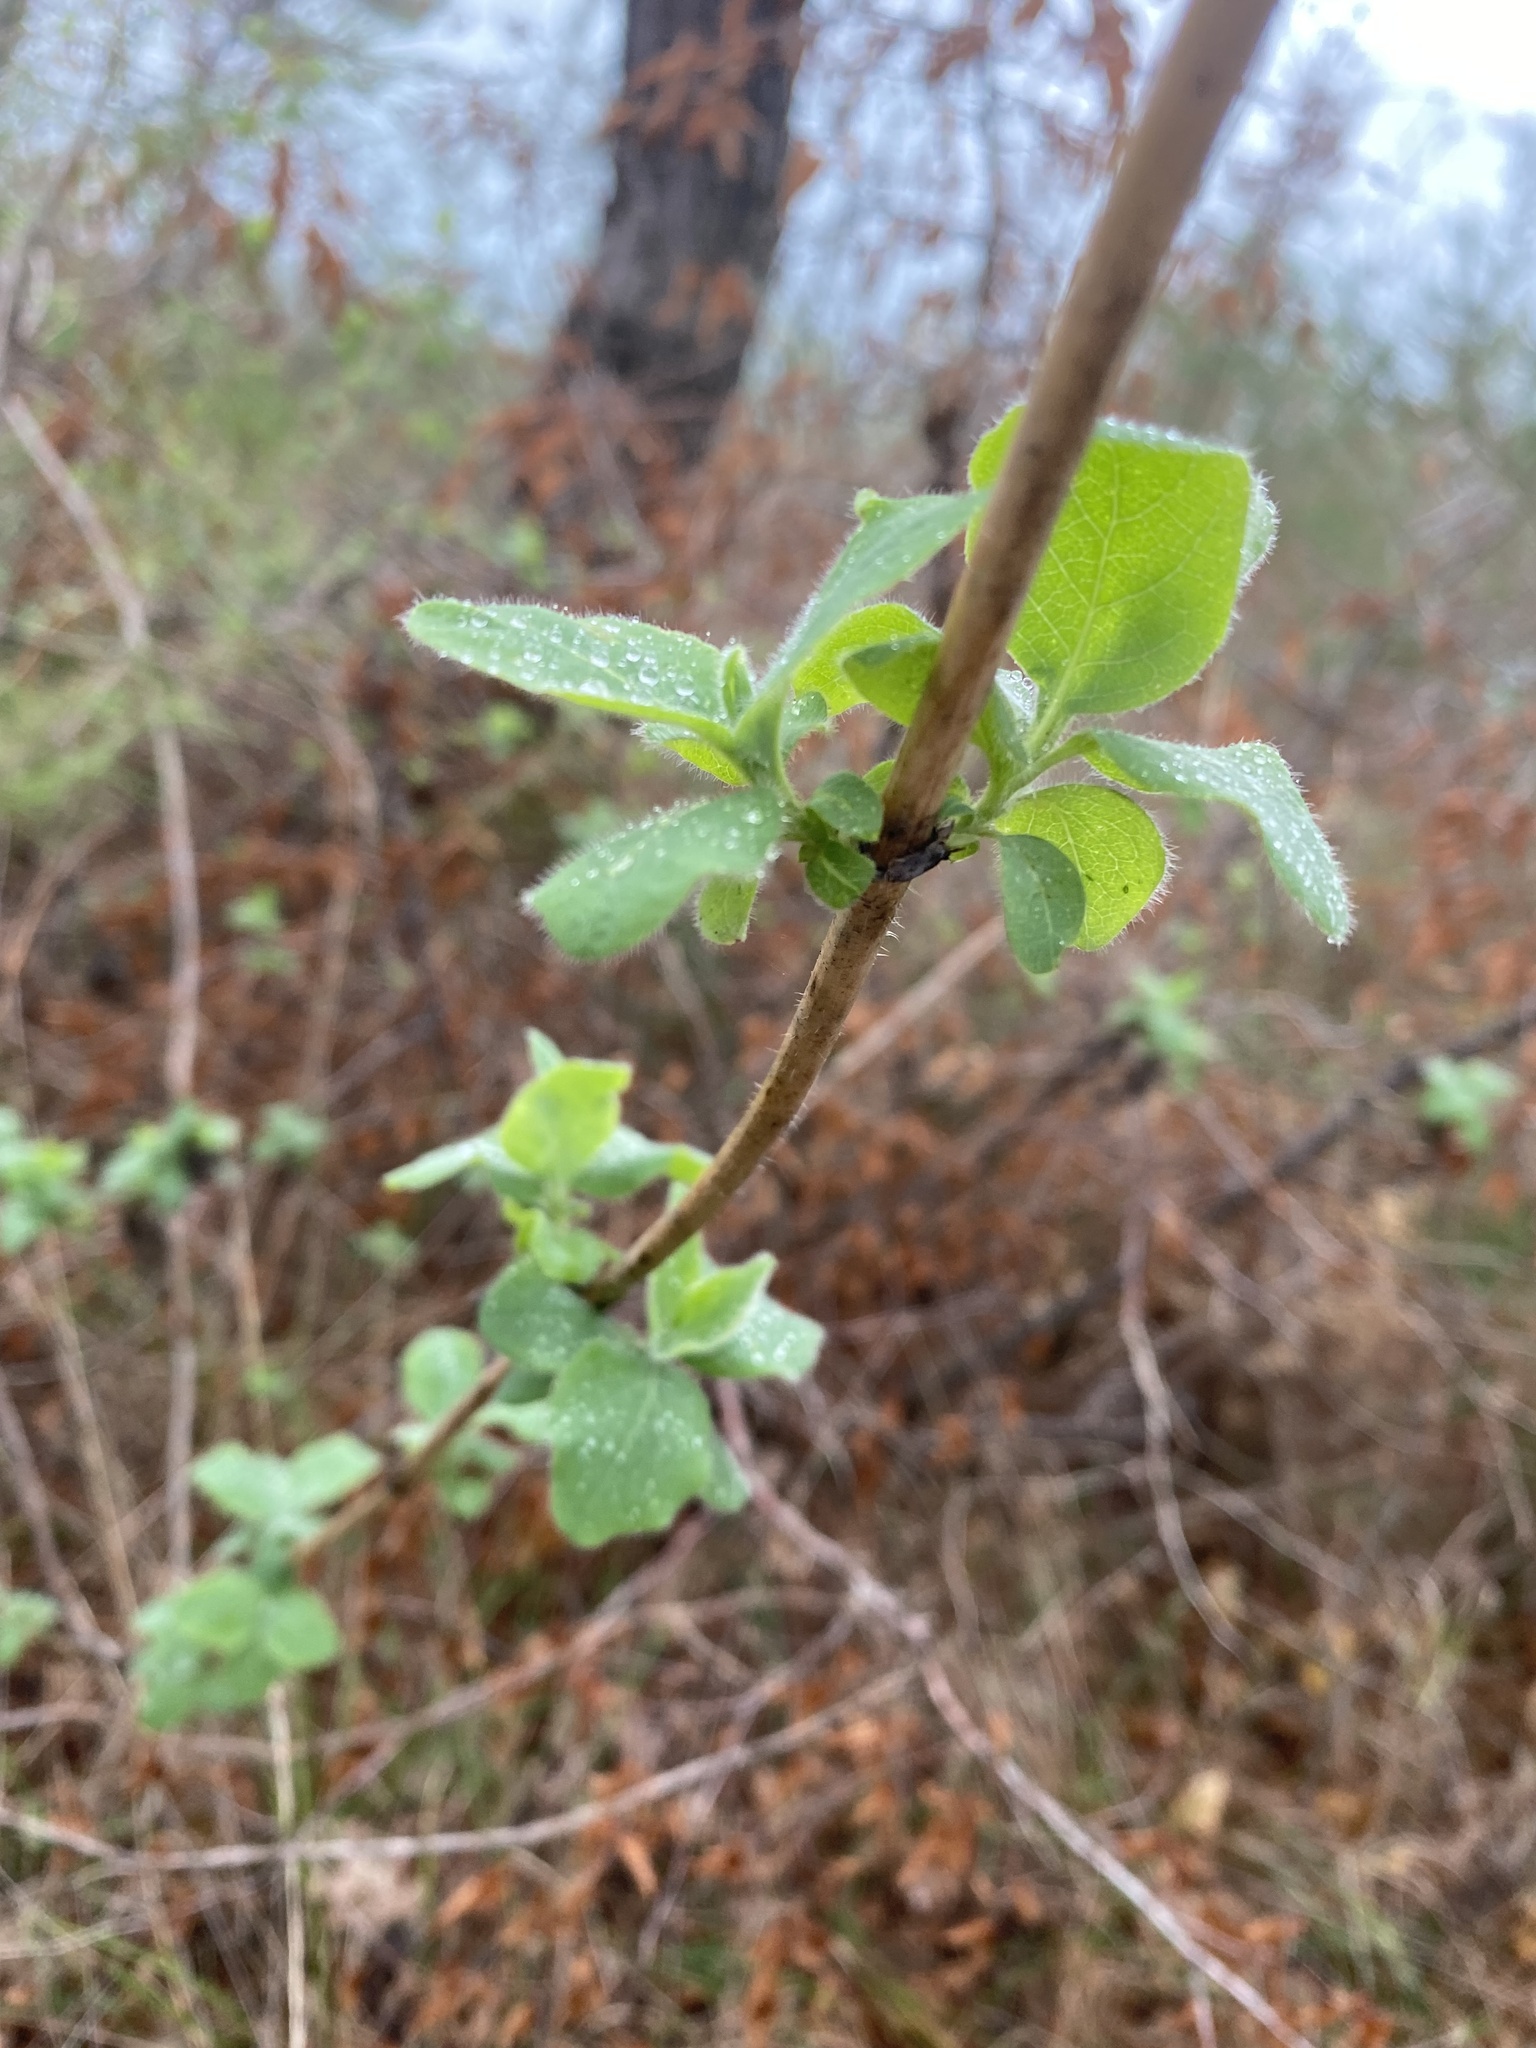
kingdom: Plantae
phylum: Tracheophyta
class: Magnoliopsida
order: Dipsacales
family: Caprifoliaceae
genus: Lonicera
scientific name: Lonicera etrusca
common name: Etruscan honeysuckle
